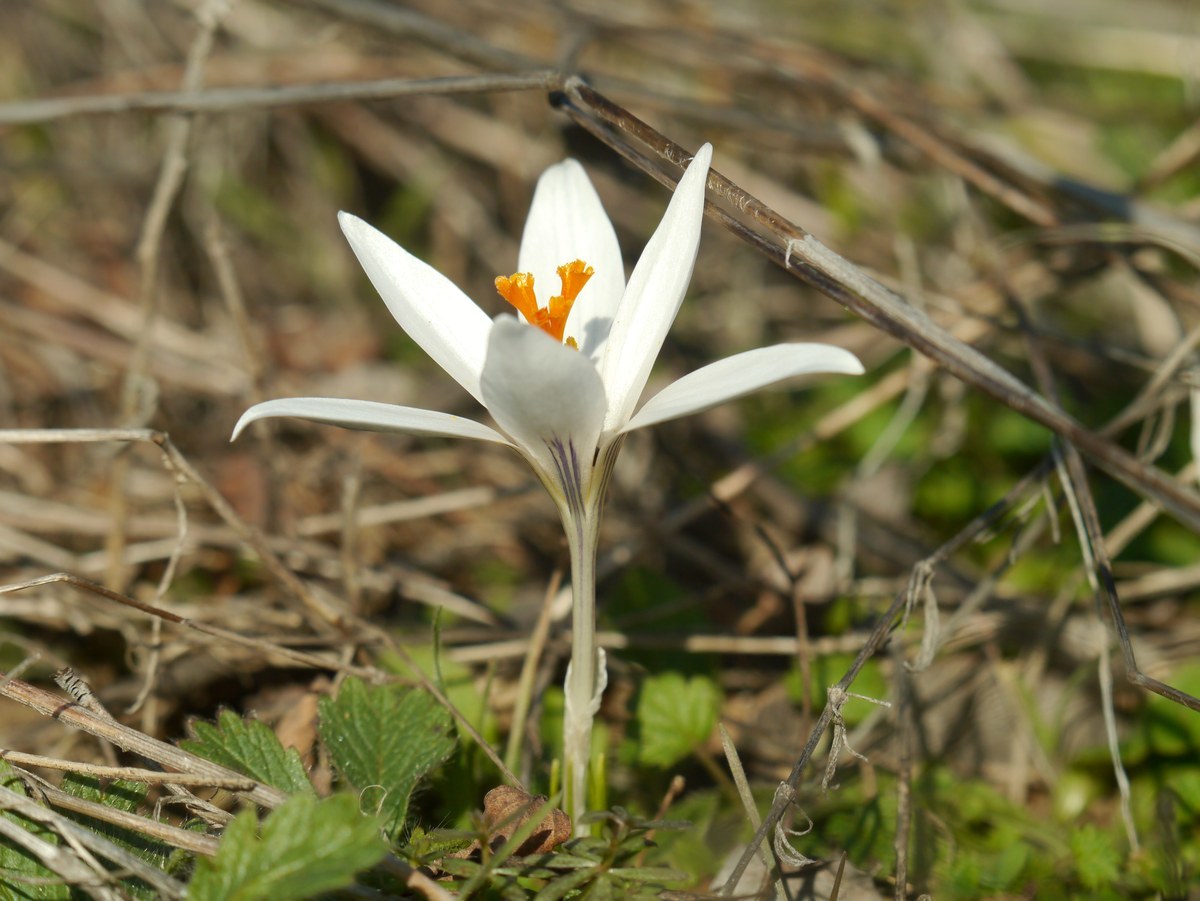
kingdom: Plantae
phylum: Tracheophyta
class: Liliopsida
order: Asparagales
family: Iridaceae
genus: Crocus
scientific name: Crocus reticulatus
